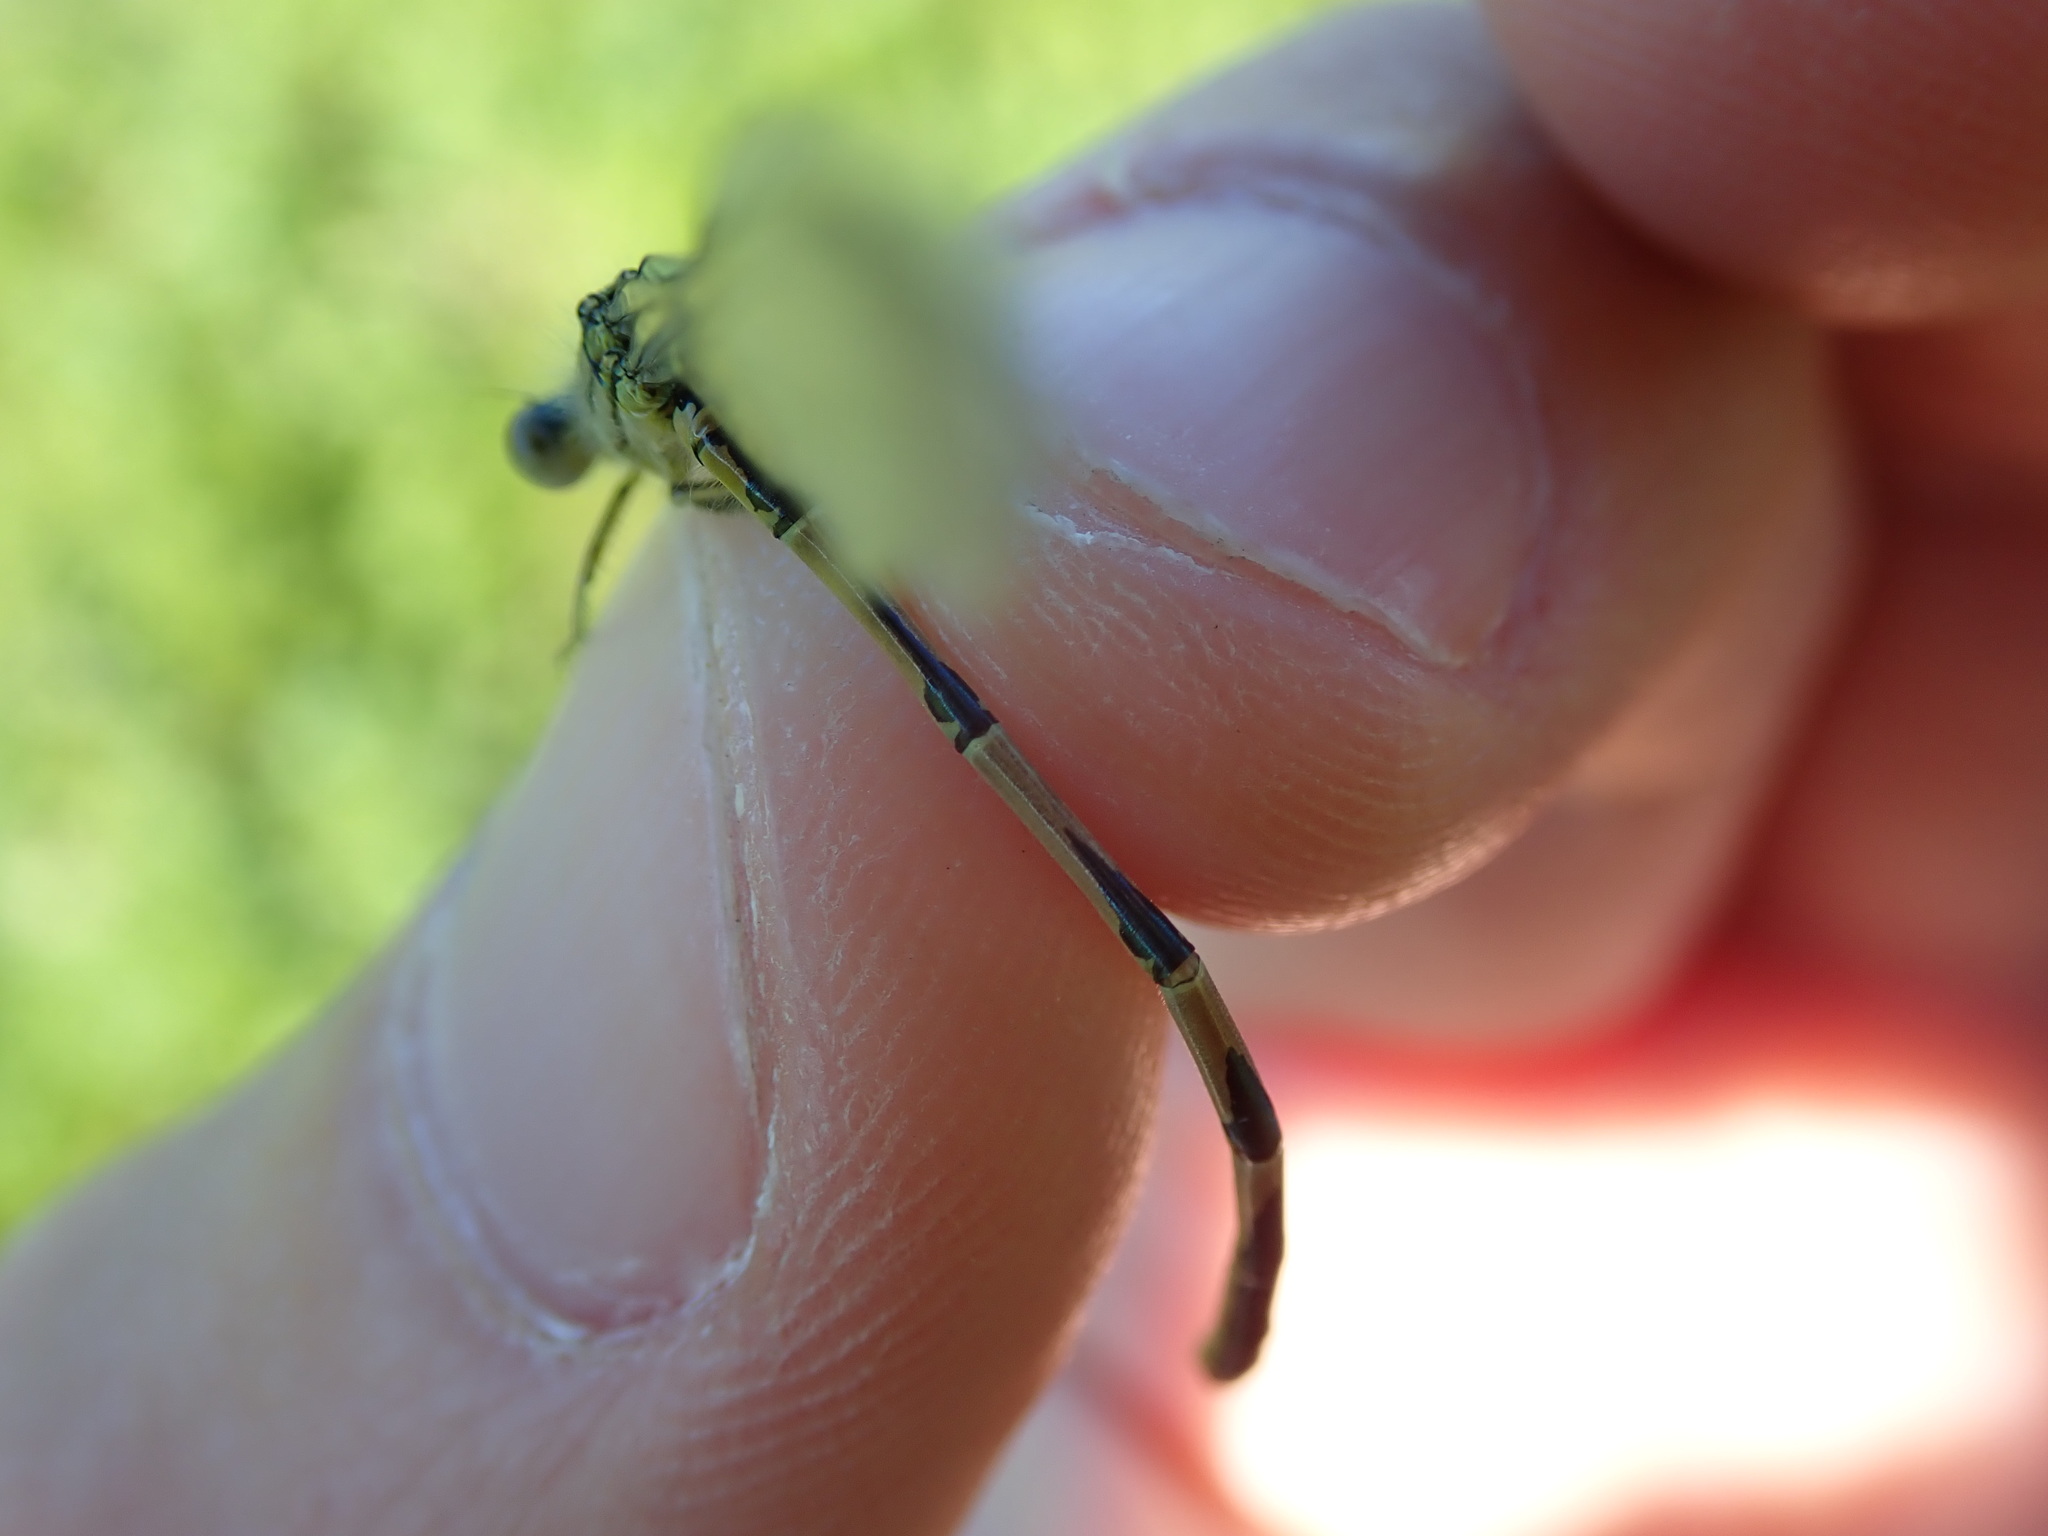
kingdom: Animalia
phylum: Arthropoda
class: Insecta
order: Odonata
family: Coenagrionidae
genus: Erythromma
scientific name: Erythromma lindenii
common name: Blue-eye
